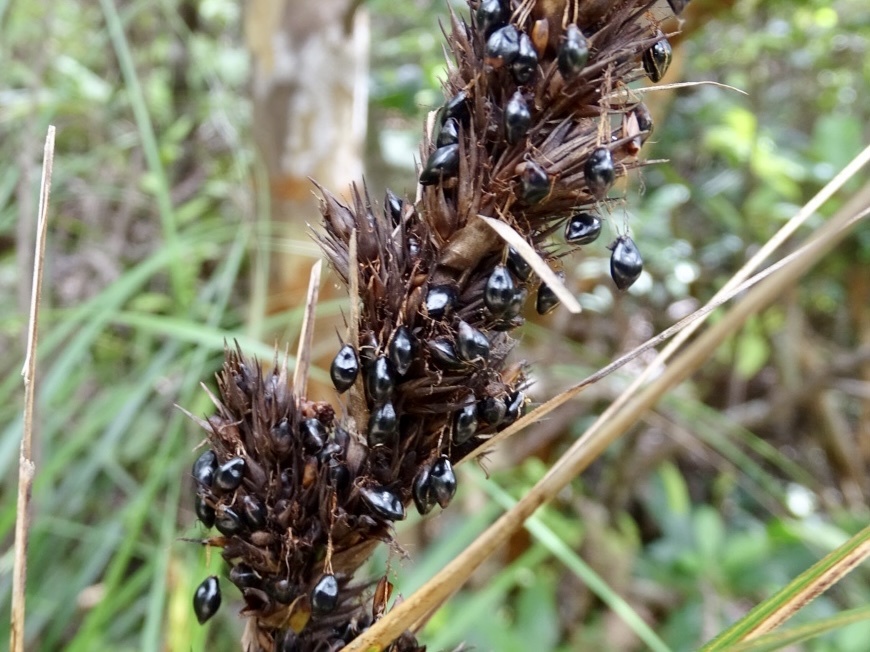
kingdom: Plantae
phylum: Tracheophyta
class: Liliopsida
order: Poales
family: Cyperaceae
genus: Gahnia
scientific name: Gahnia tristis
